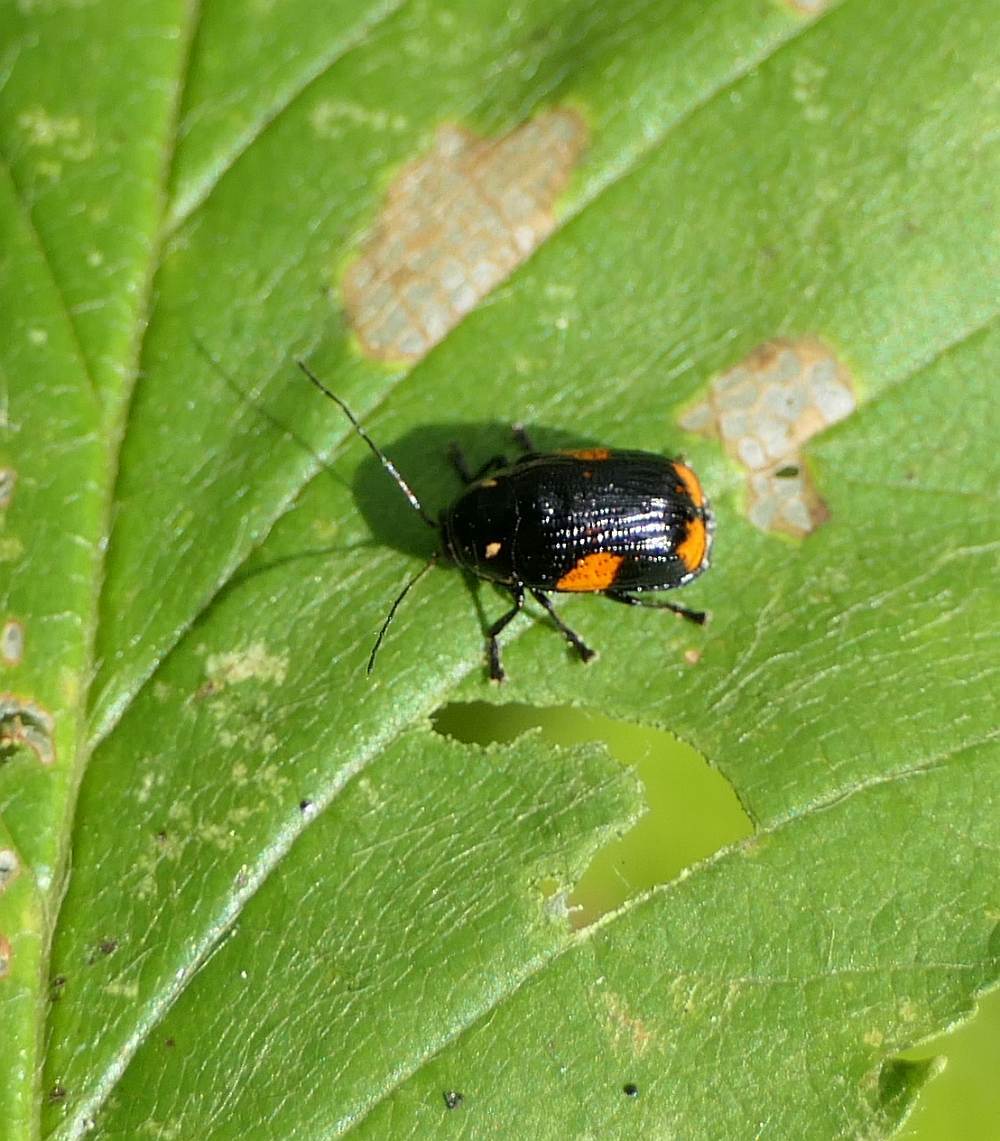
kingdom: Animalia
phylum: Arthropoda
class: Insecta
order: Coleoptera
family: Chrysomelidae
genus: Bassareus
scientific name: Bassareus mammifer
